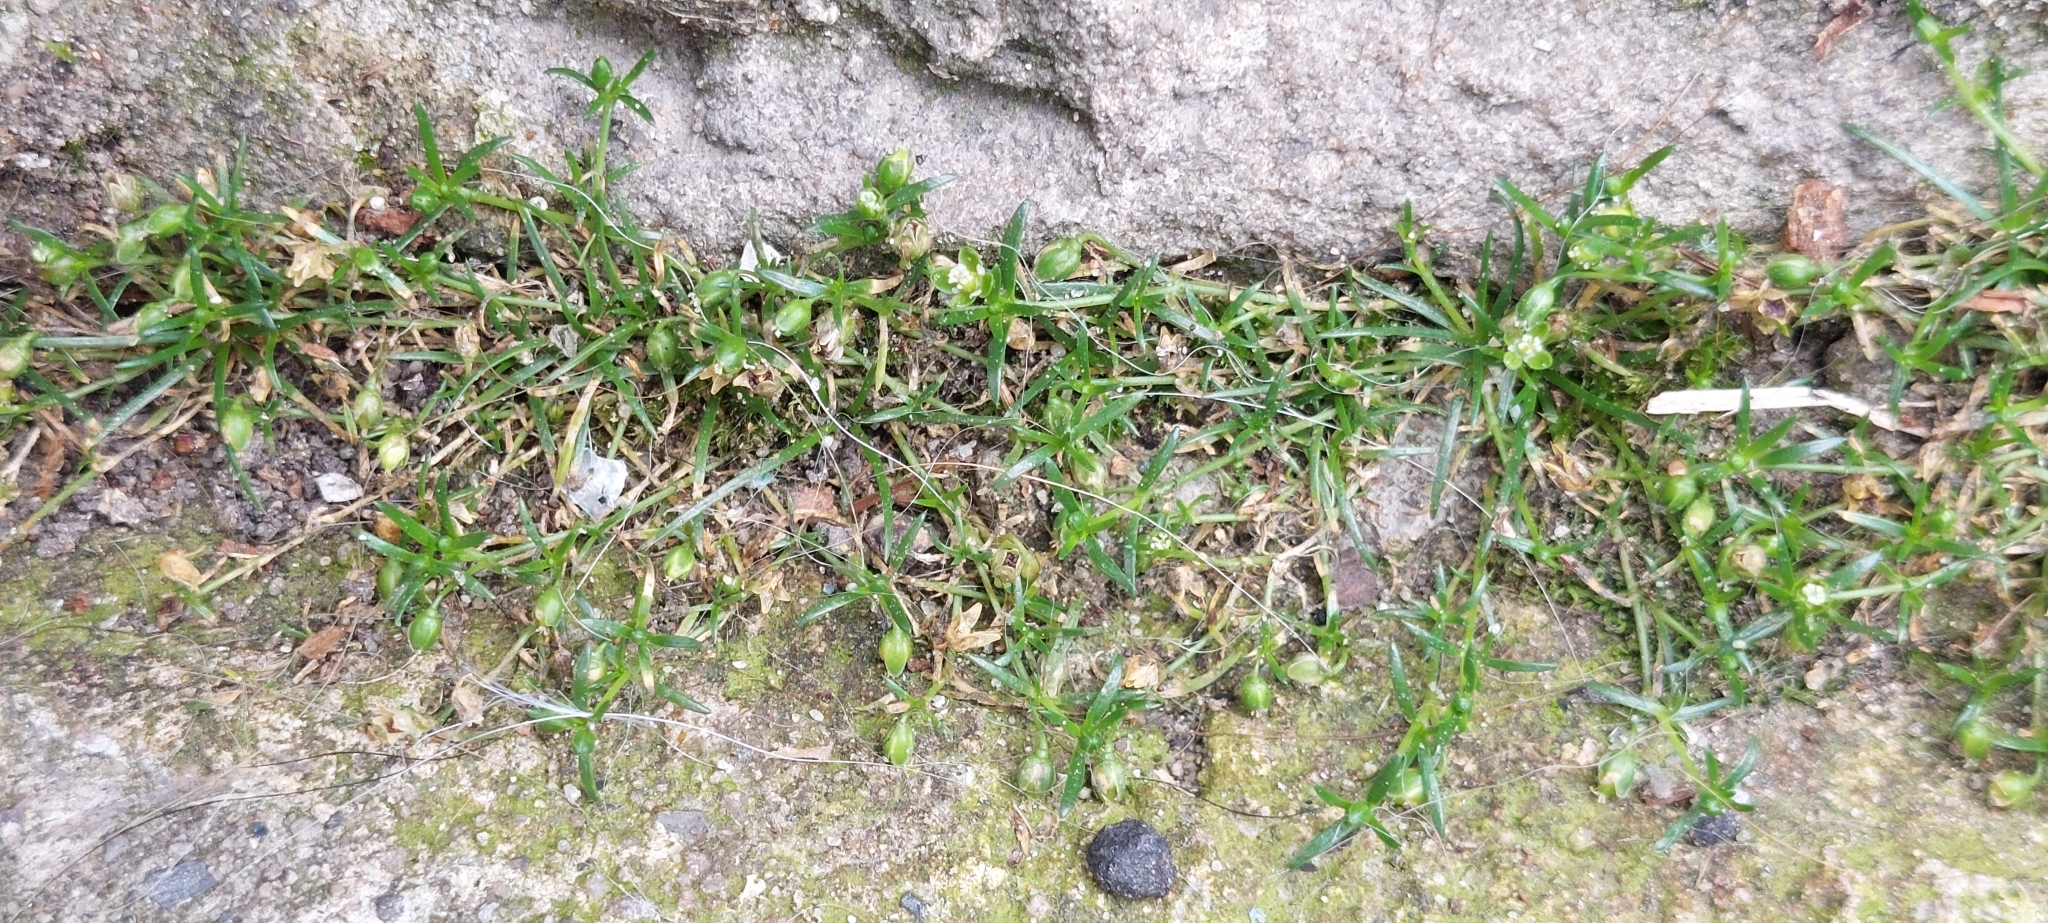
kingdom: Plantae
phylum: Tracheophyta
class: Magnoliopsida
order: Caryophyllales
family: Caryophyllaceae
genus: Sagina
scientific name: Sagina procumbens
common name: Procumbent pearlwort
